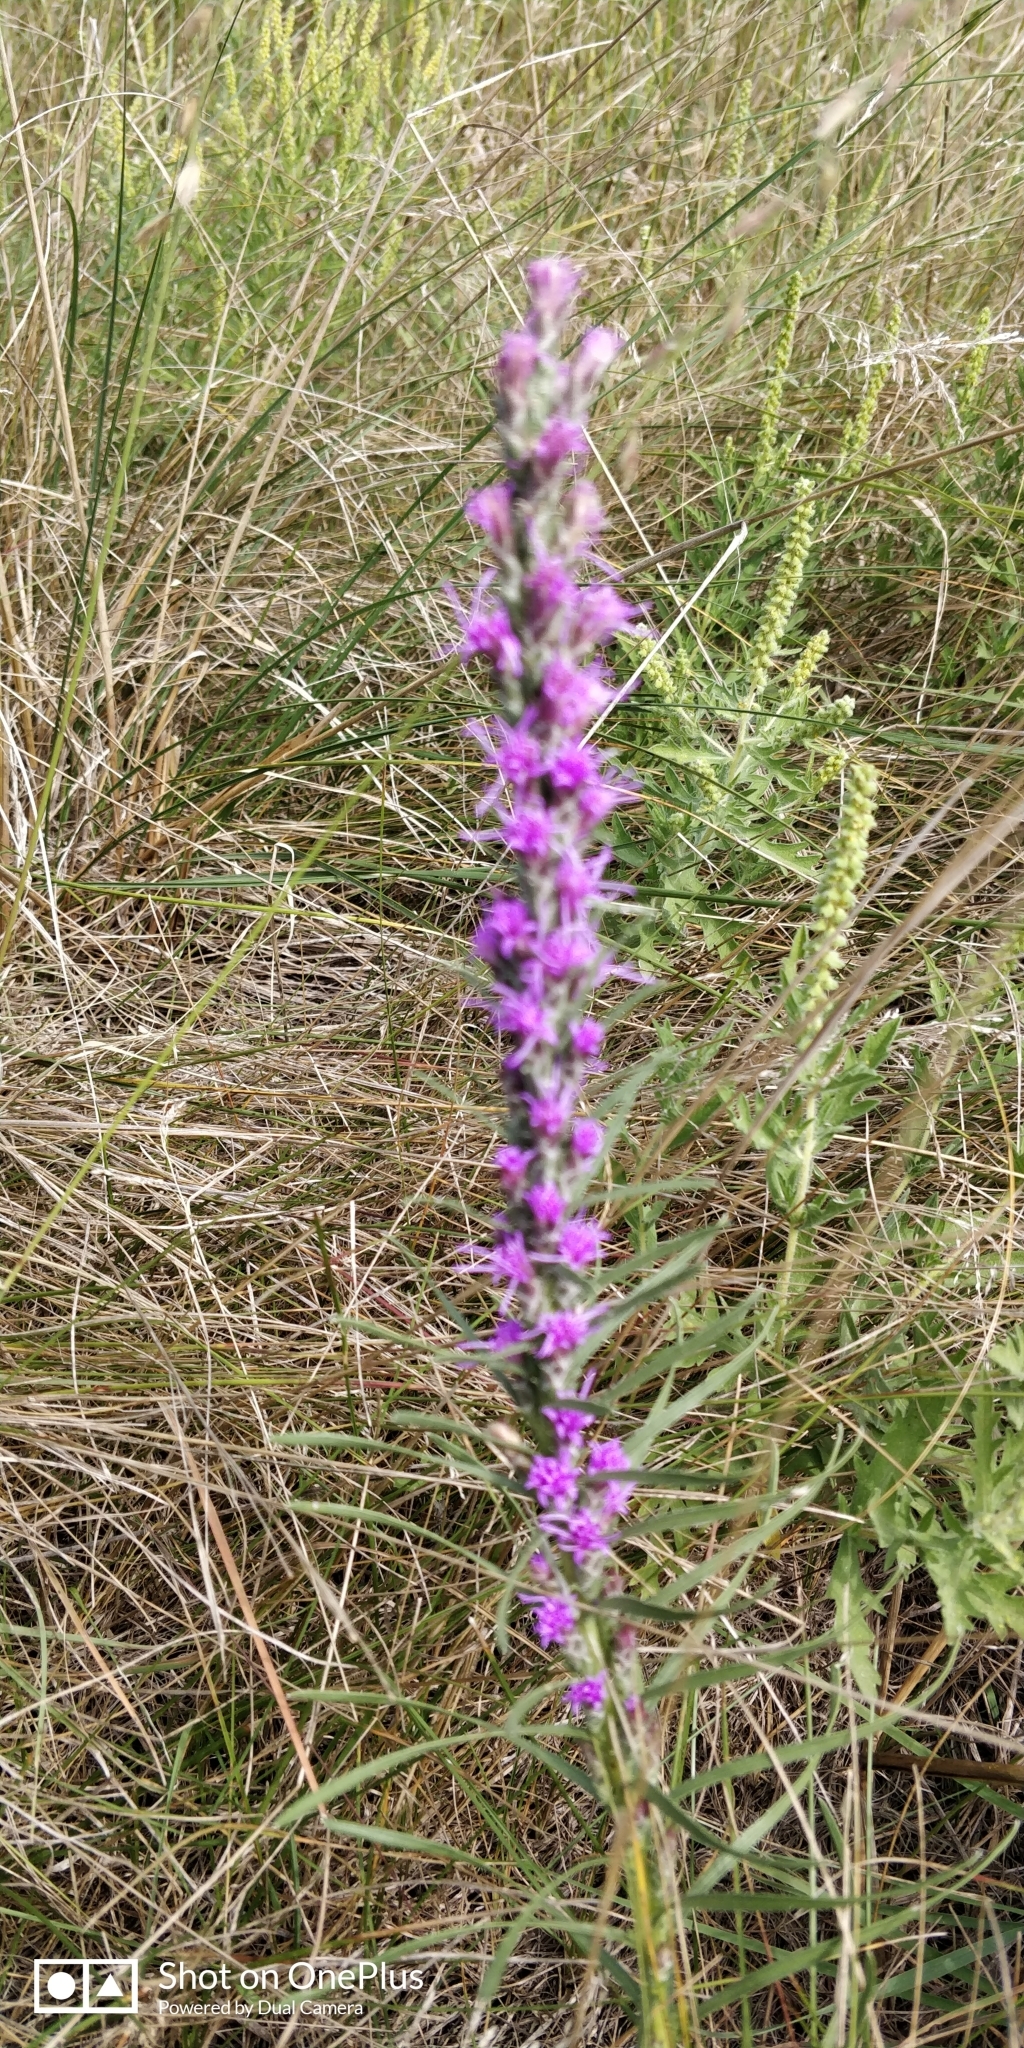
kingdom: Plantae
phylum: Tracheophyta
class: Magnoliopsida
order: Asterales
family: Asteraceae
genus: Liatris
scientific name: Liatris punctata
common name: Dotted gayfeather
